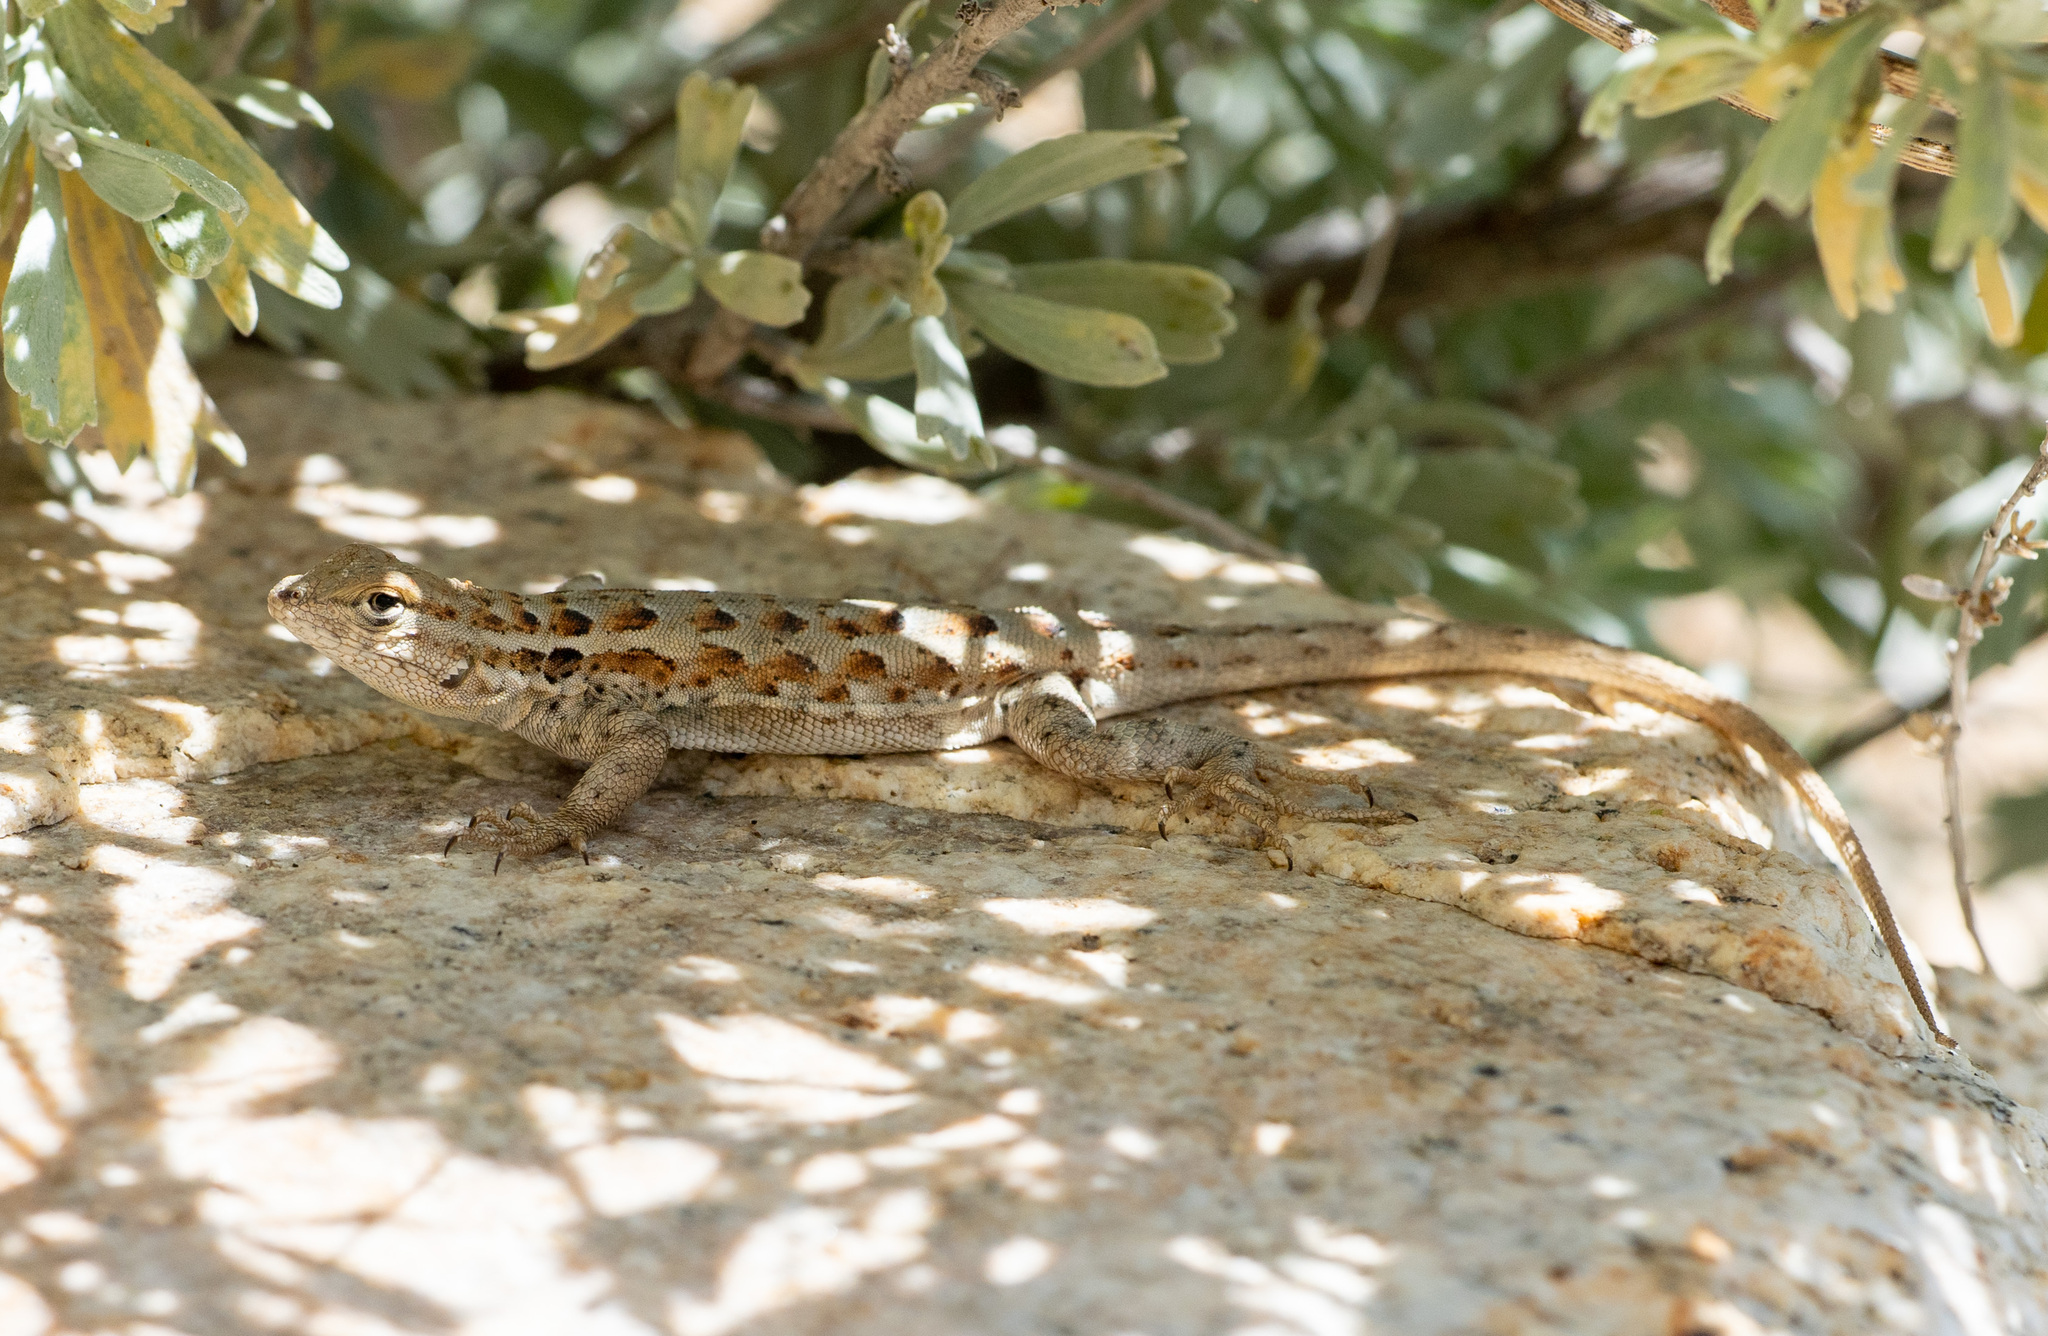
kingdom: Animalia
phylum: Chordata
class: Squamata
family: Phrynosomatidae
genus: Uta
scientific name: Uta stansburiana
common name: Side-blotched lizard
